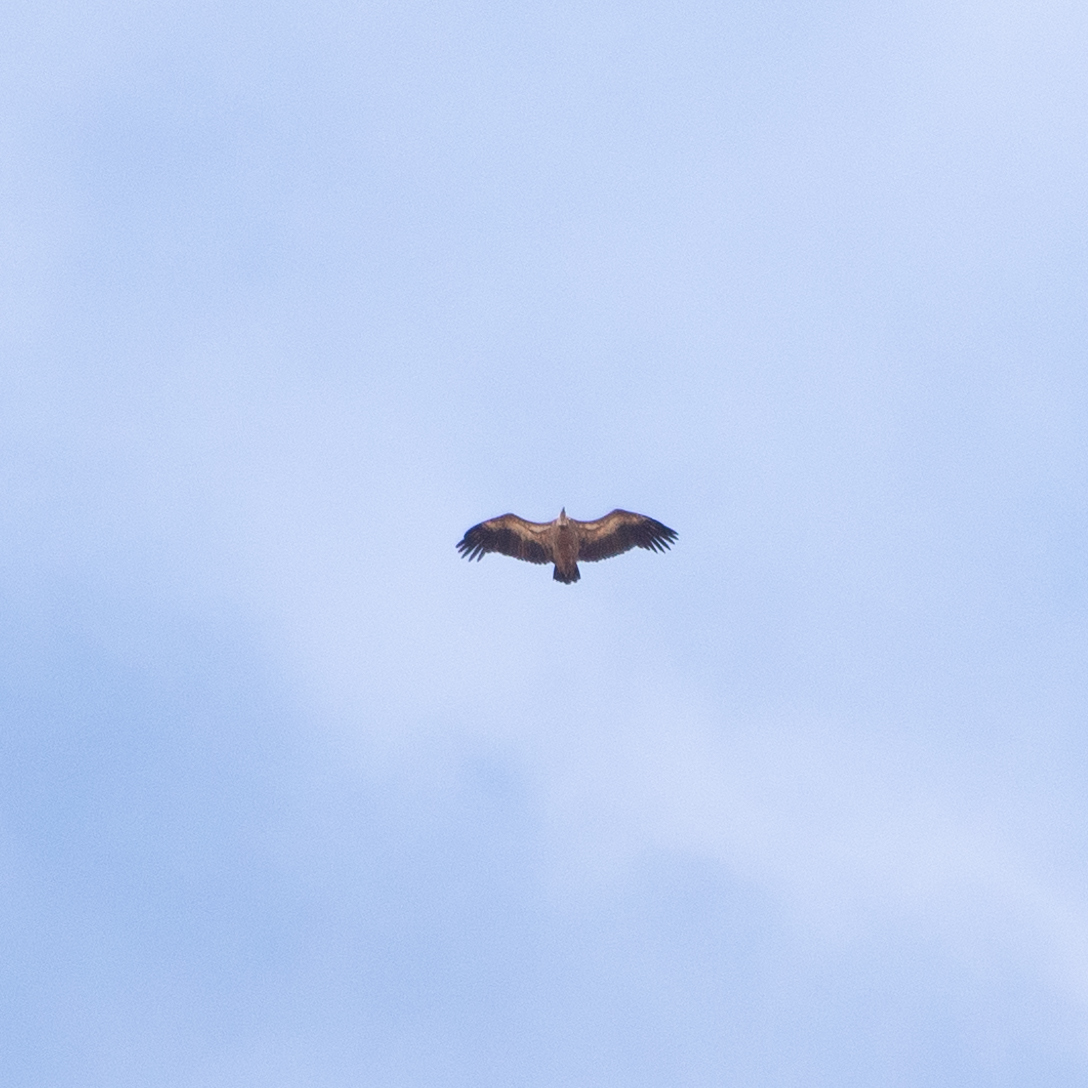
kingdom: Animalia
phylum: Chordata
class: Aves
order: Accipitriformes
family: Accipitridae
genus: Gyps
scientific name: Gyps fulvus
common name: Griffon vulture
